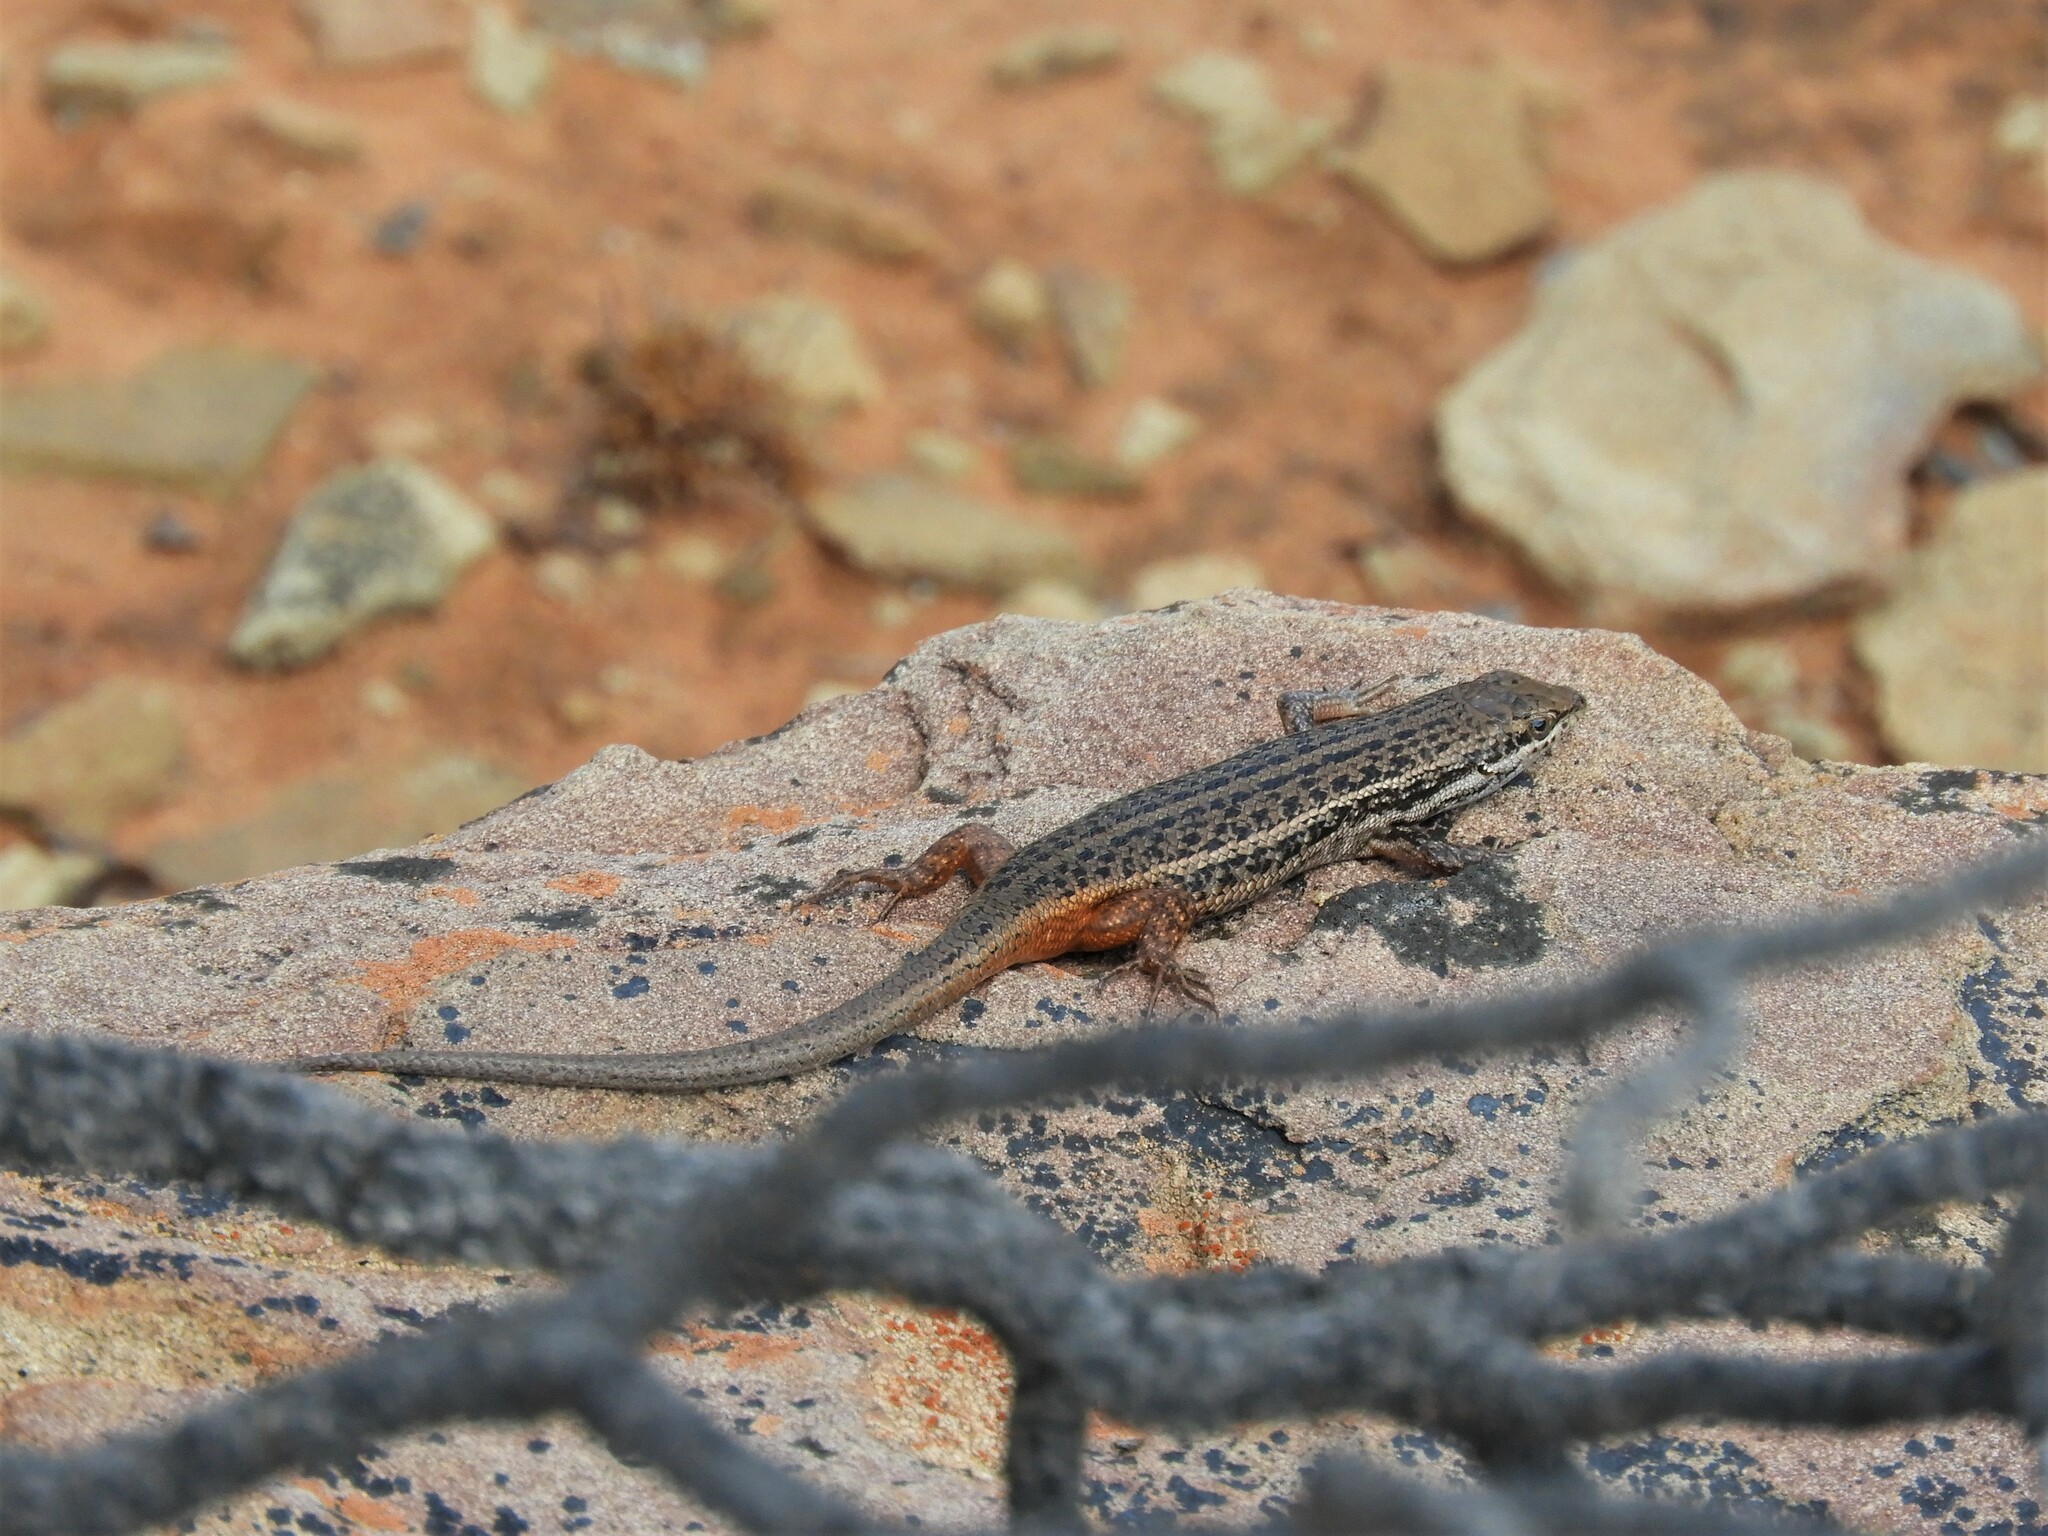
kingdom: Animalia
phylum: Chordata
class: Squamata
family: Scincidae
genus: Trachylepis
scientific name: Trachylepis variegata
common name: Variegated skink
